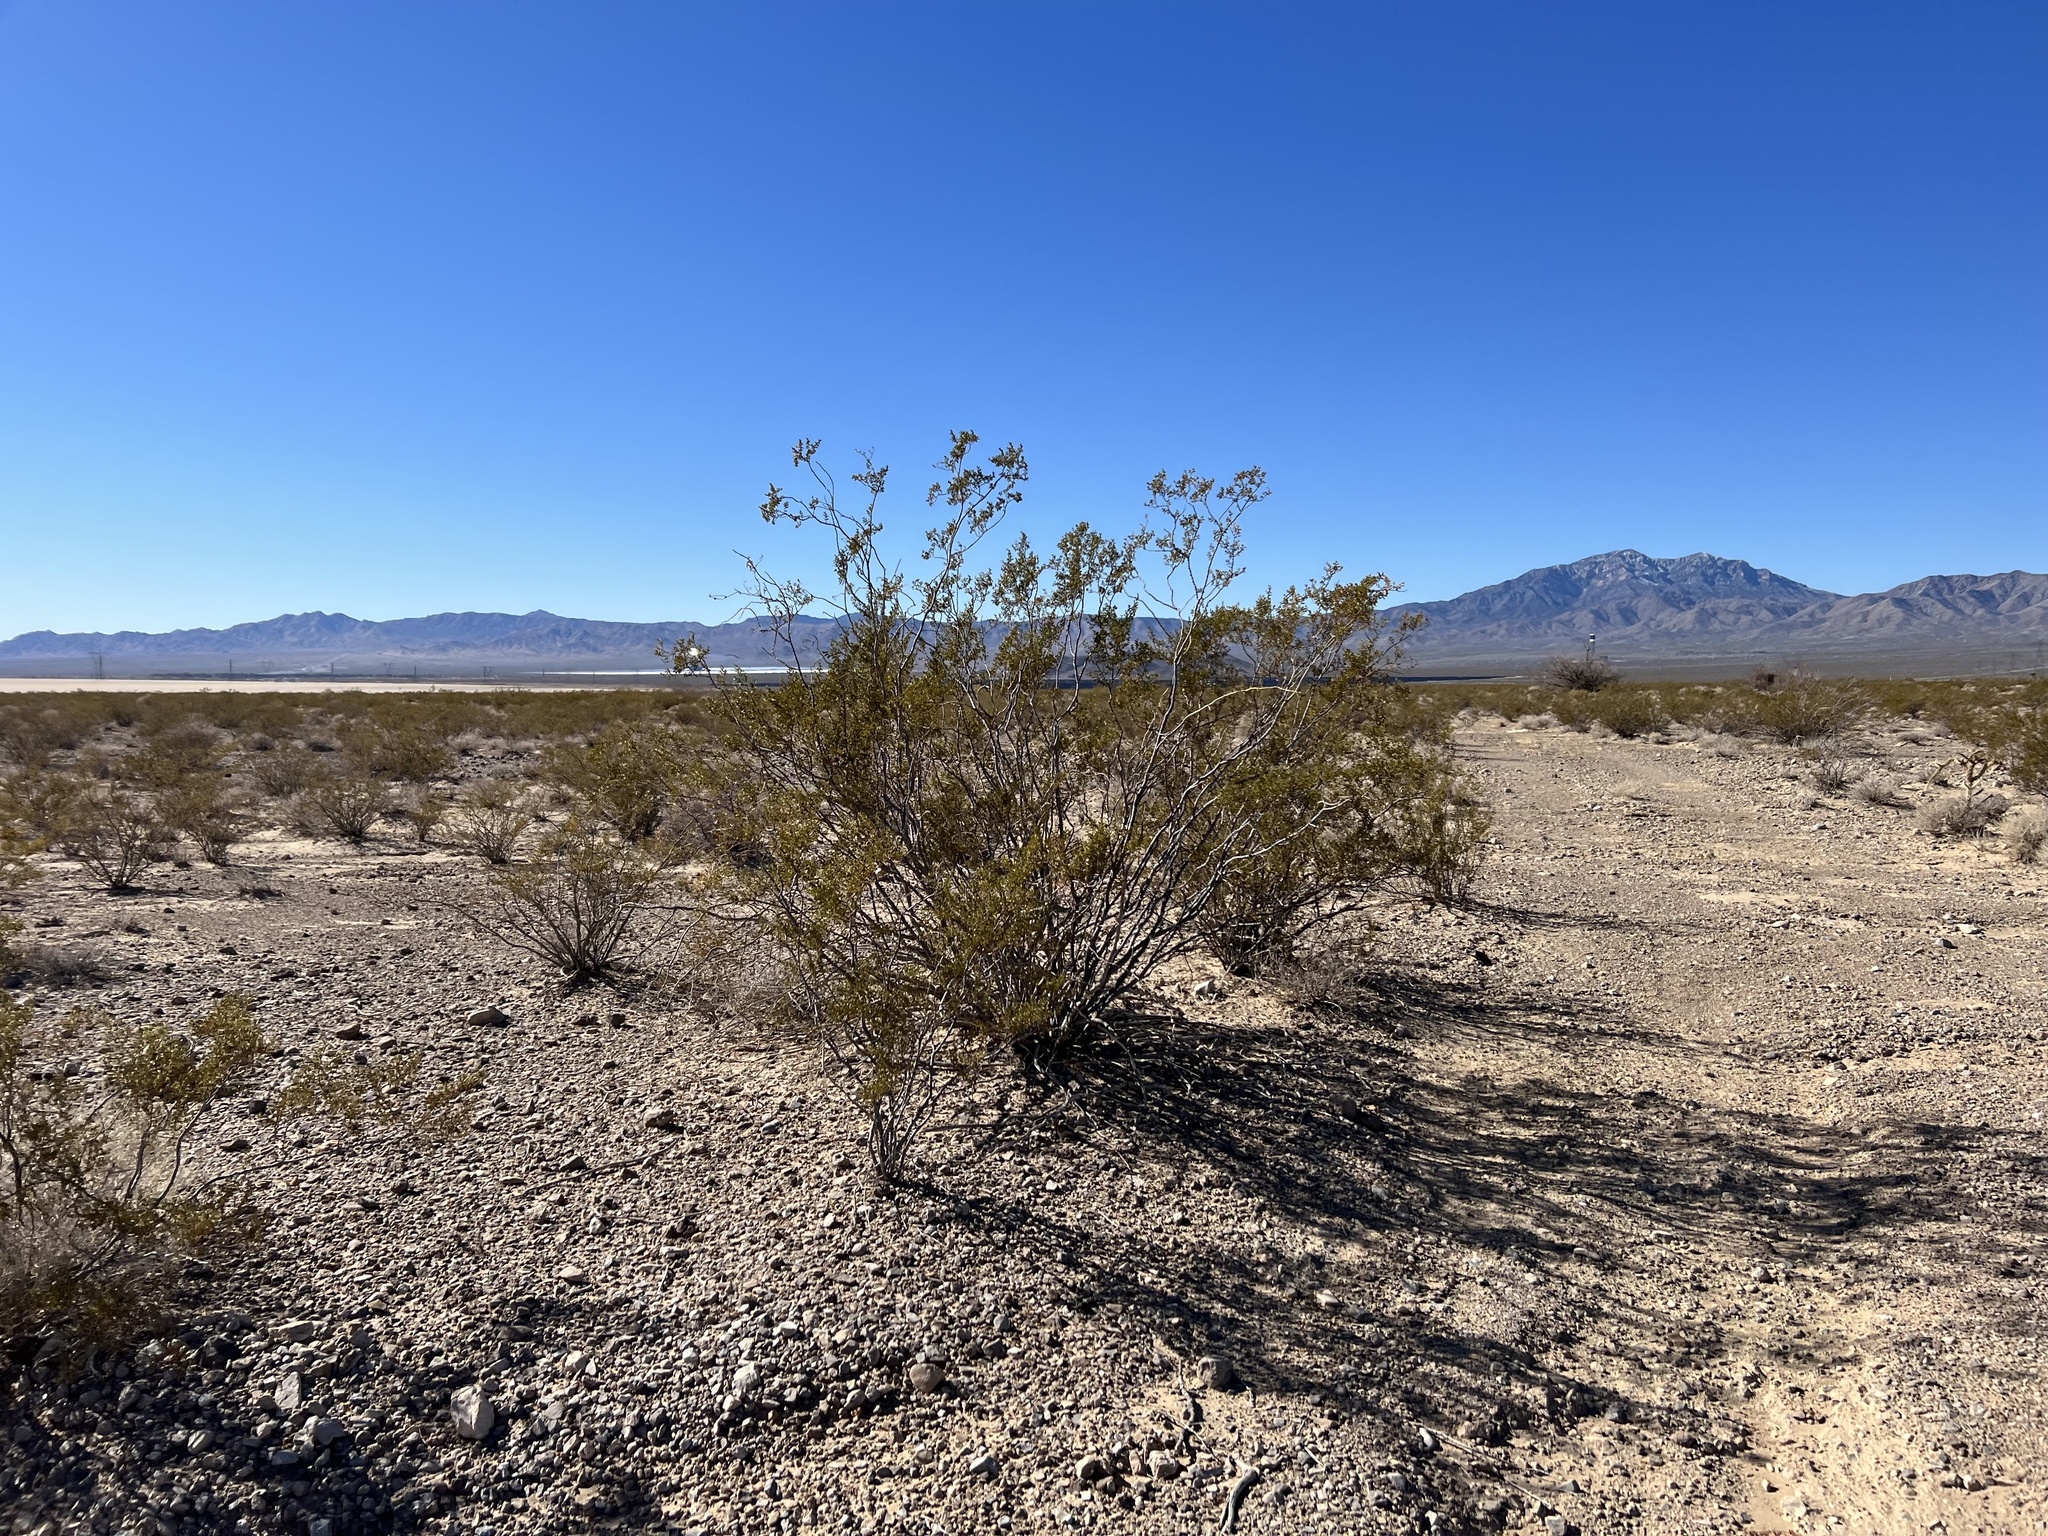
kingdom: Plantae
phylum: Tracheophyta
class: Magnoliopsida
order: Zygophyllales
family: Zygophyllaceae
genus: Larrea
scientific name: Larrea tridentata
